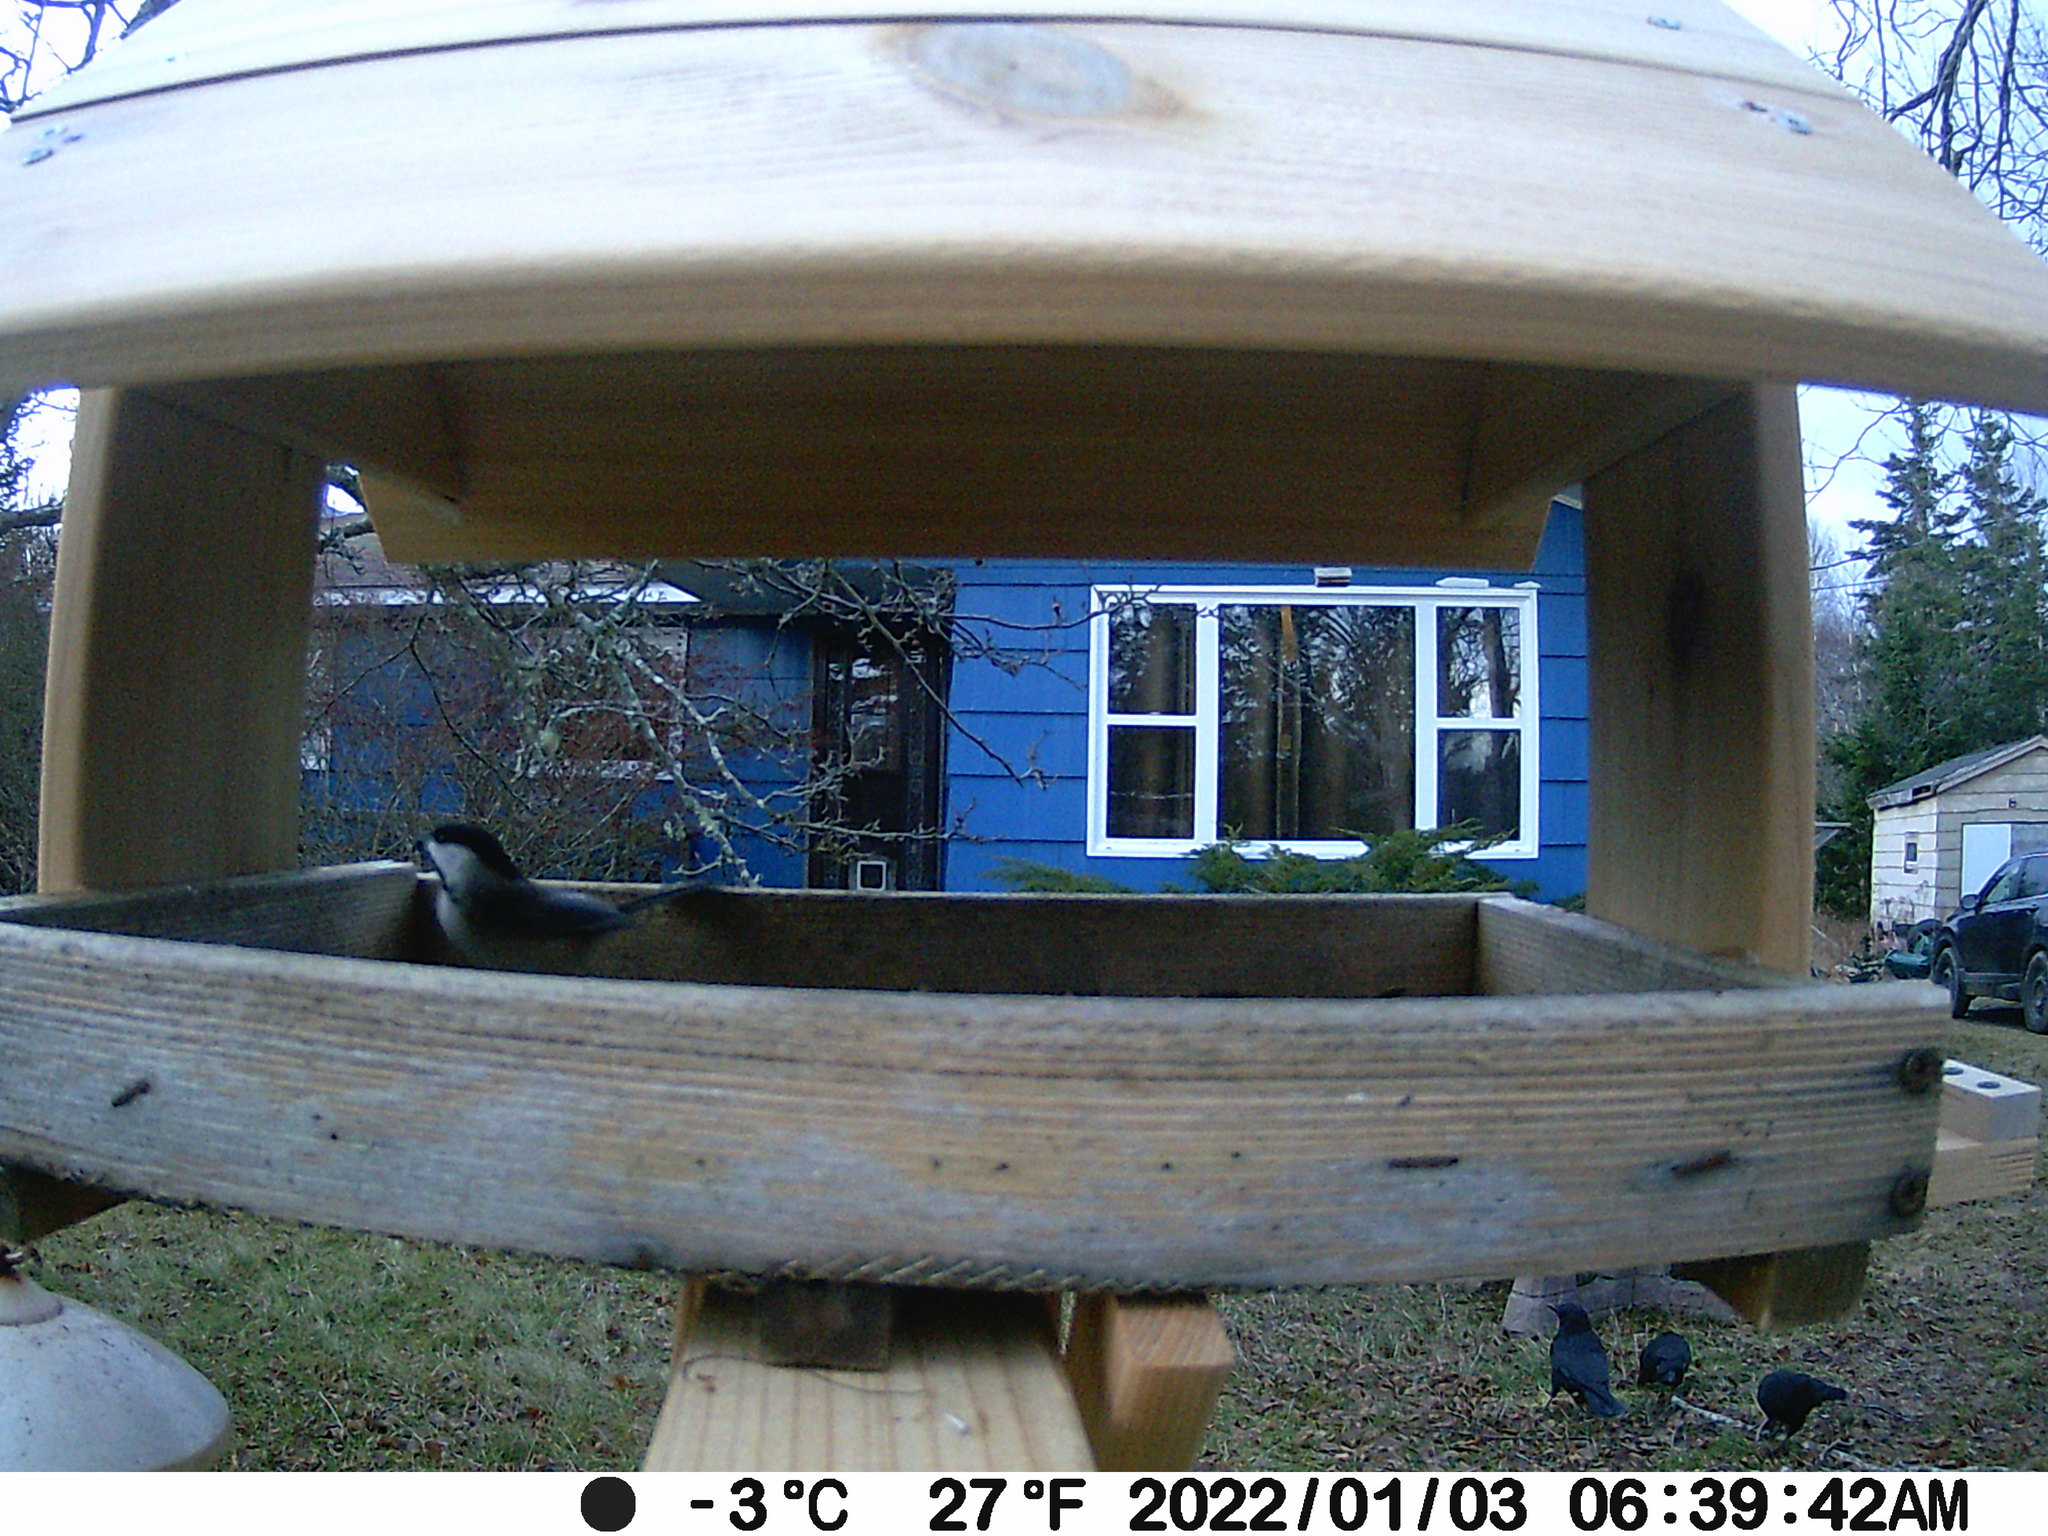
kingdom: Animalia
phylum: Chordata
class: Aves
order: Passeriformes
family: Corvidae
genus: Corvus
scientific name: Corvus brachyrhynchos
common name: American crow
